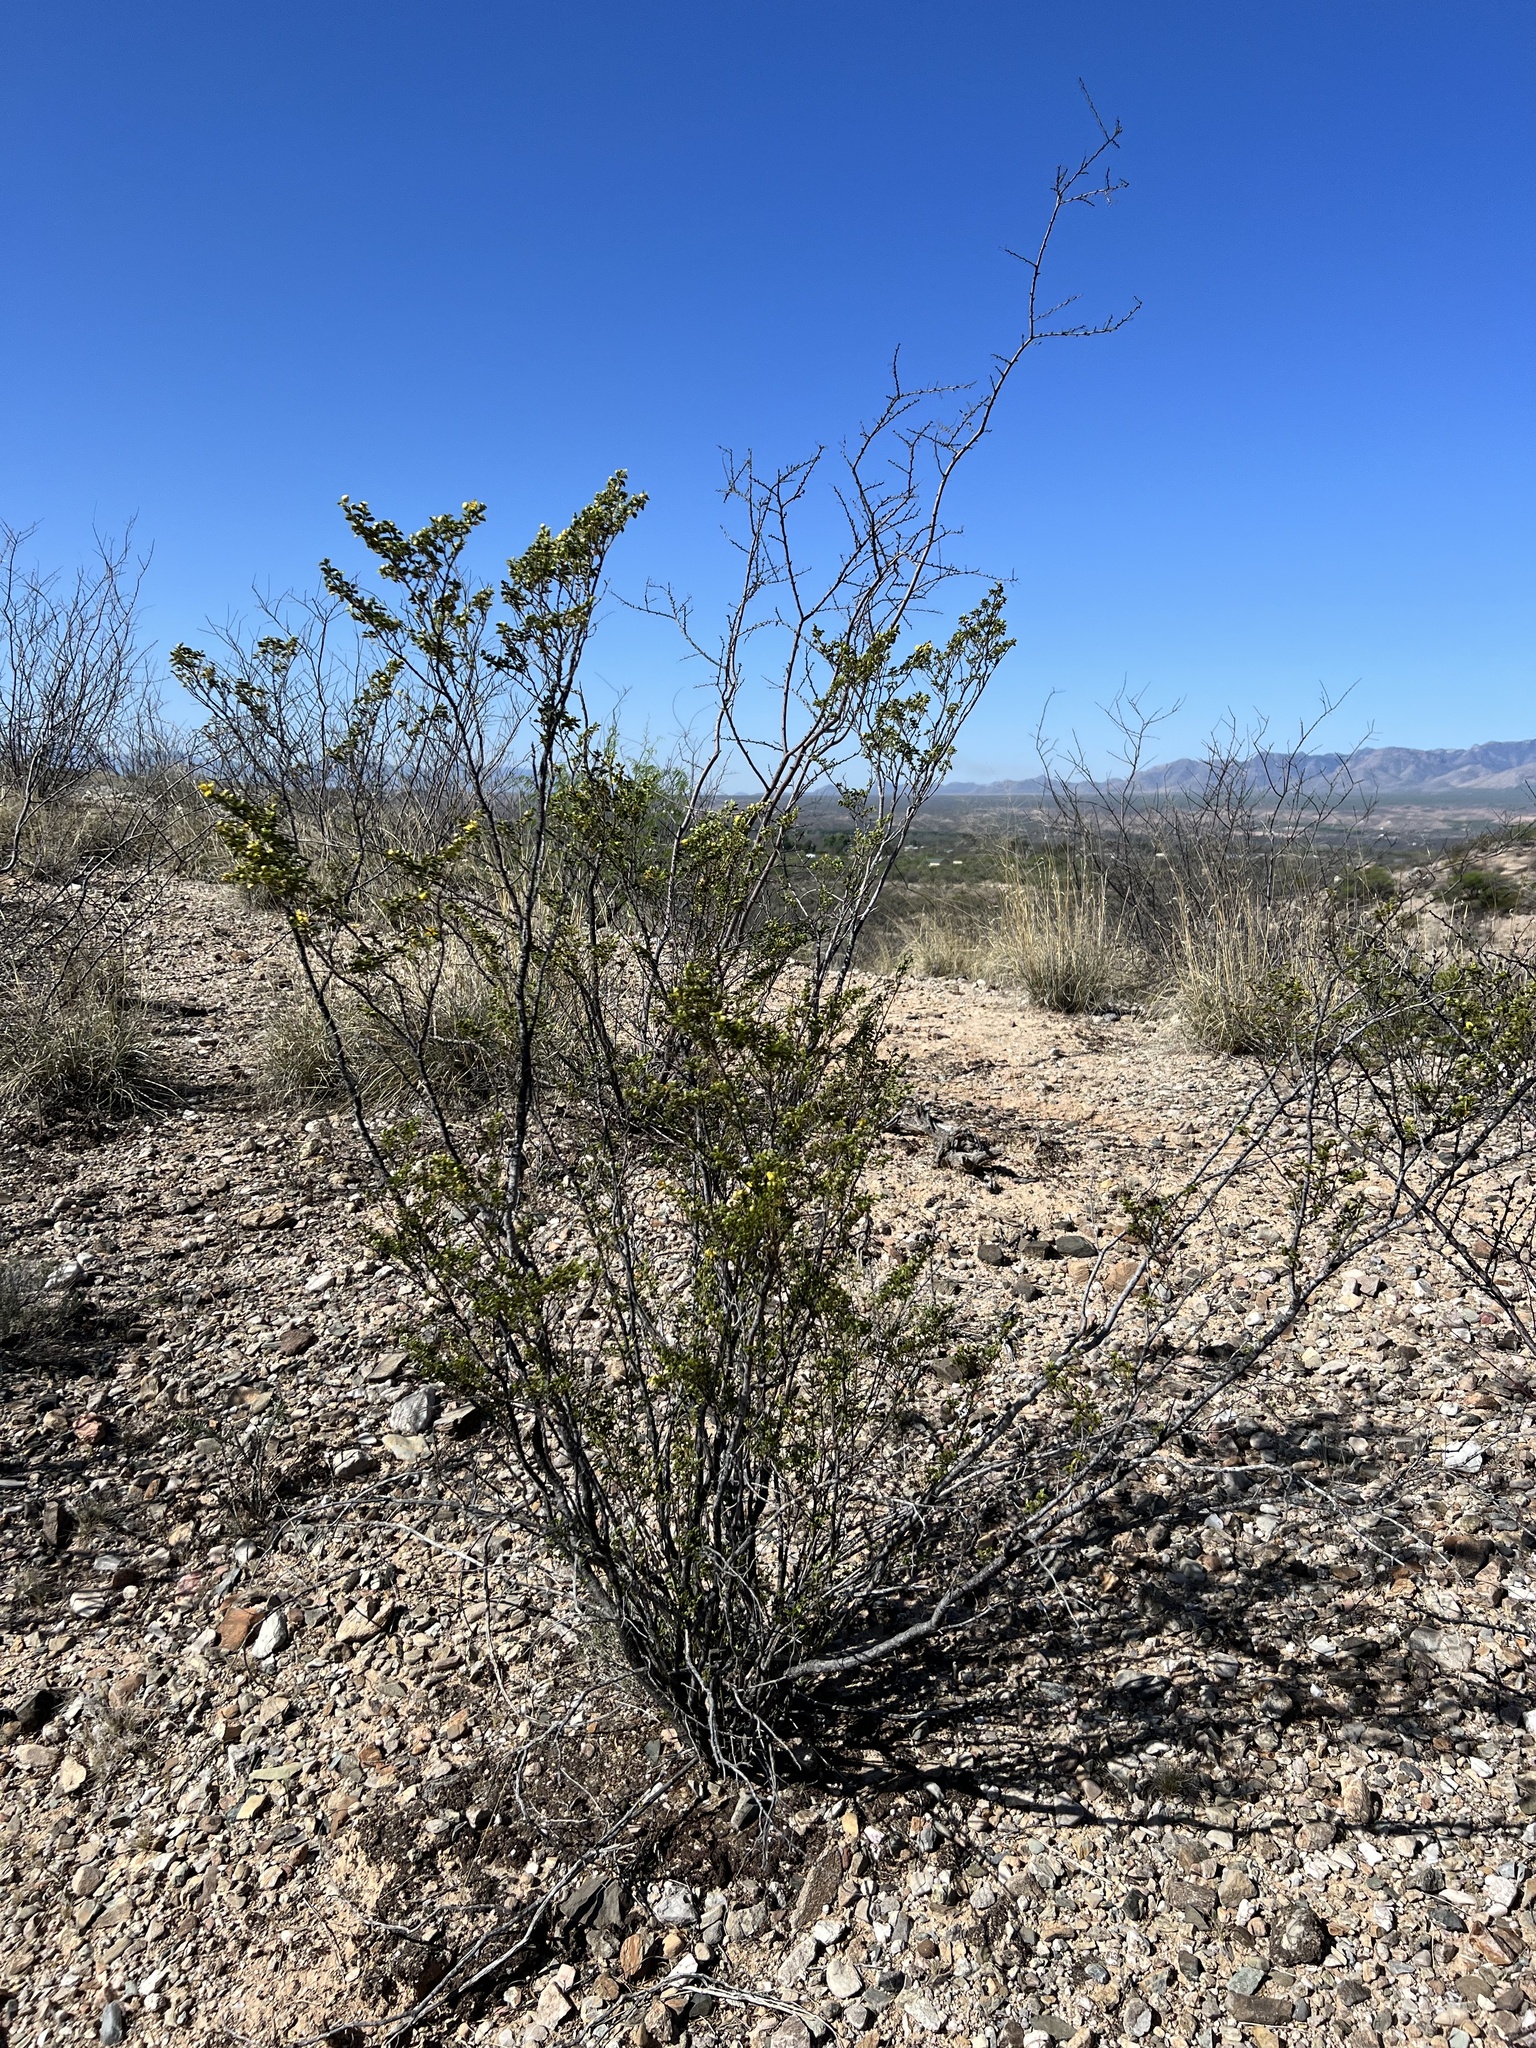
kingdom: Plantae
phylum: Tracheophyta
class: Magnoliopsida
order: Zygophyllales
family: Zygophyllaceae
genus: Larrea
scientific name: Larrea tridentata
